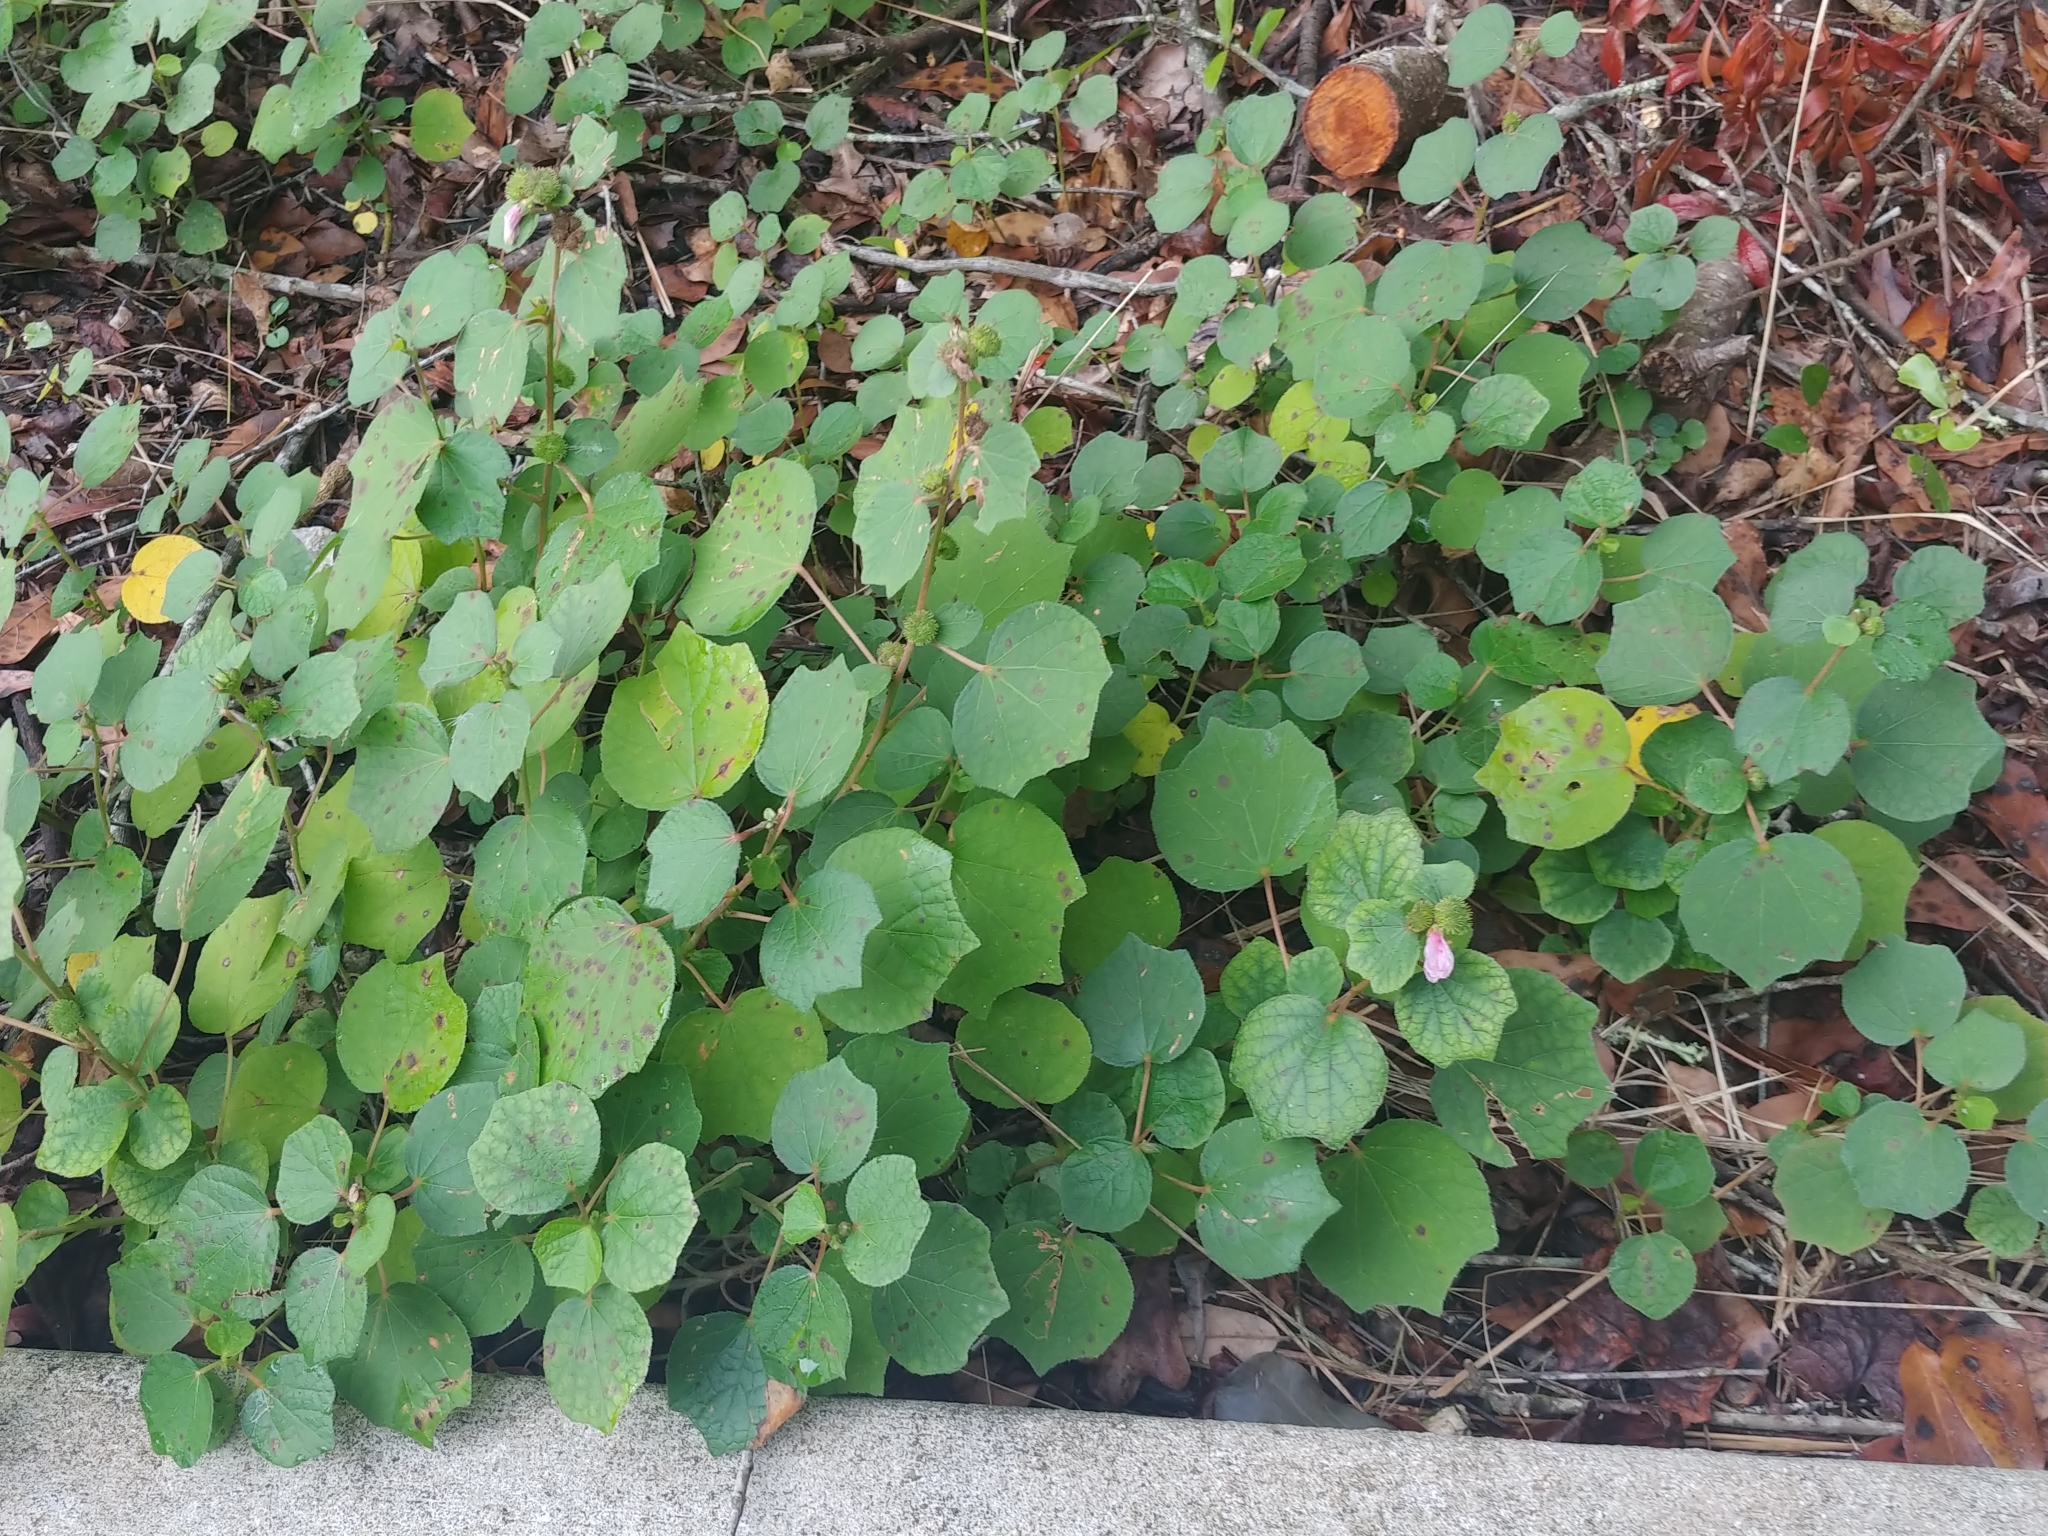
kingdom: Plantae
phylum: Tracheophyta
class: Magnoliopsida
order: Malvales
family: Malvaceae
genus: Urena
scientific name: Urena lobata
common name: Caesarweed
